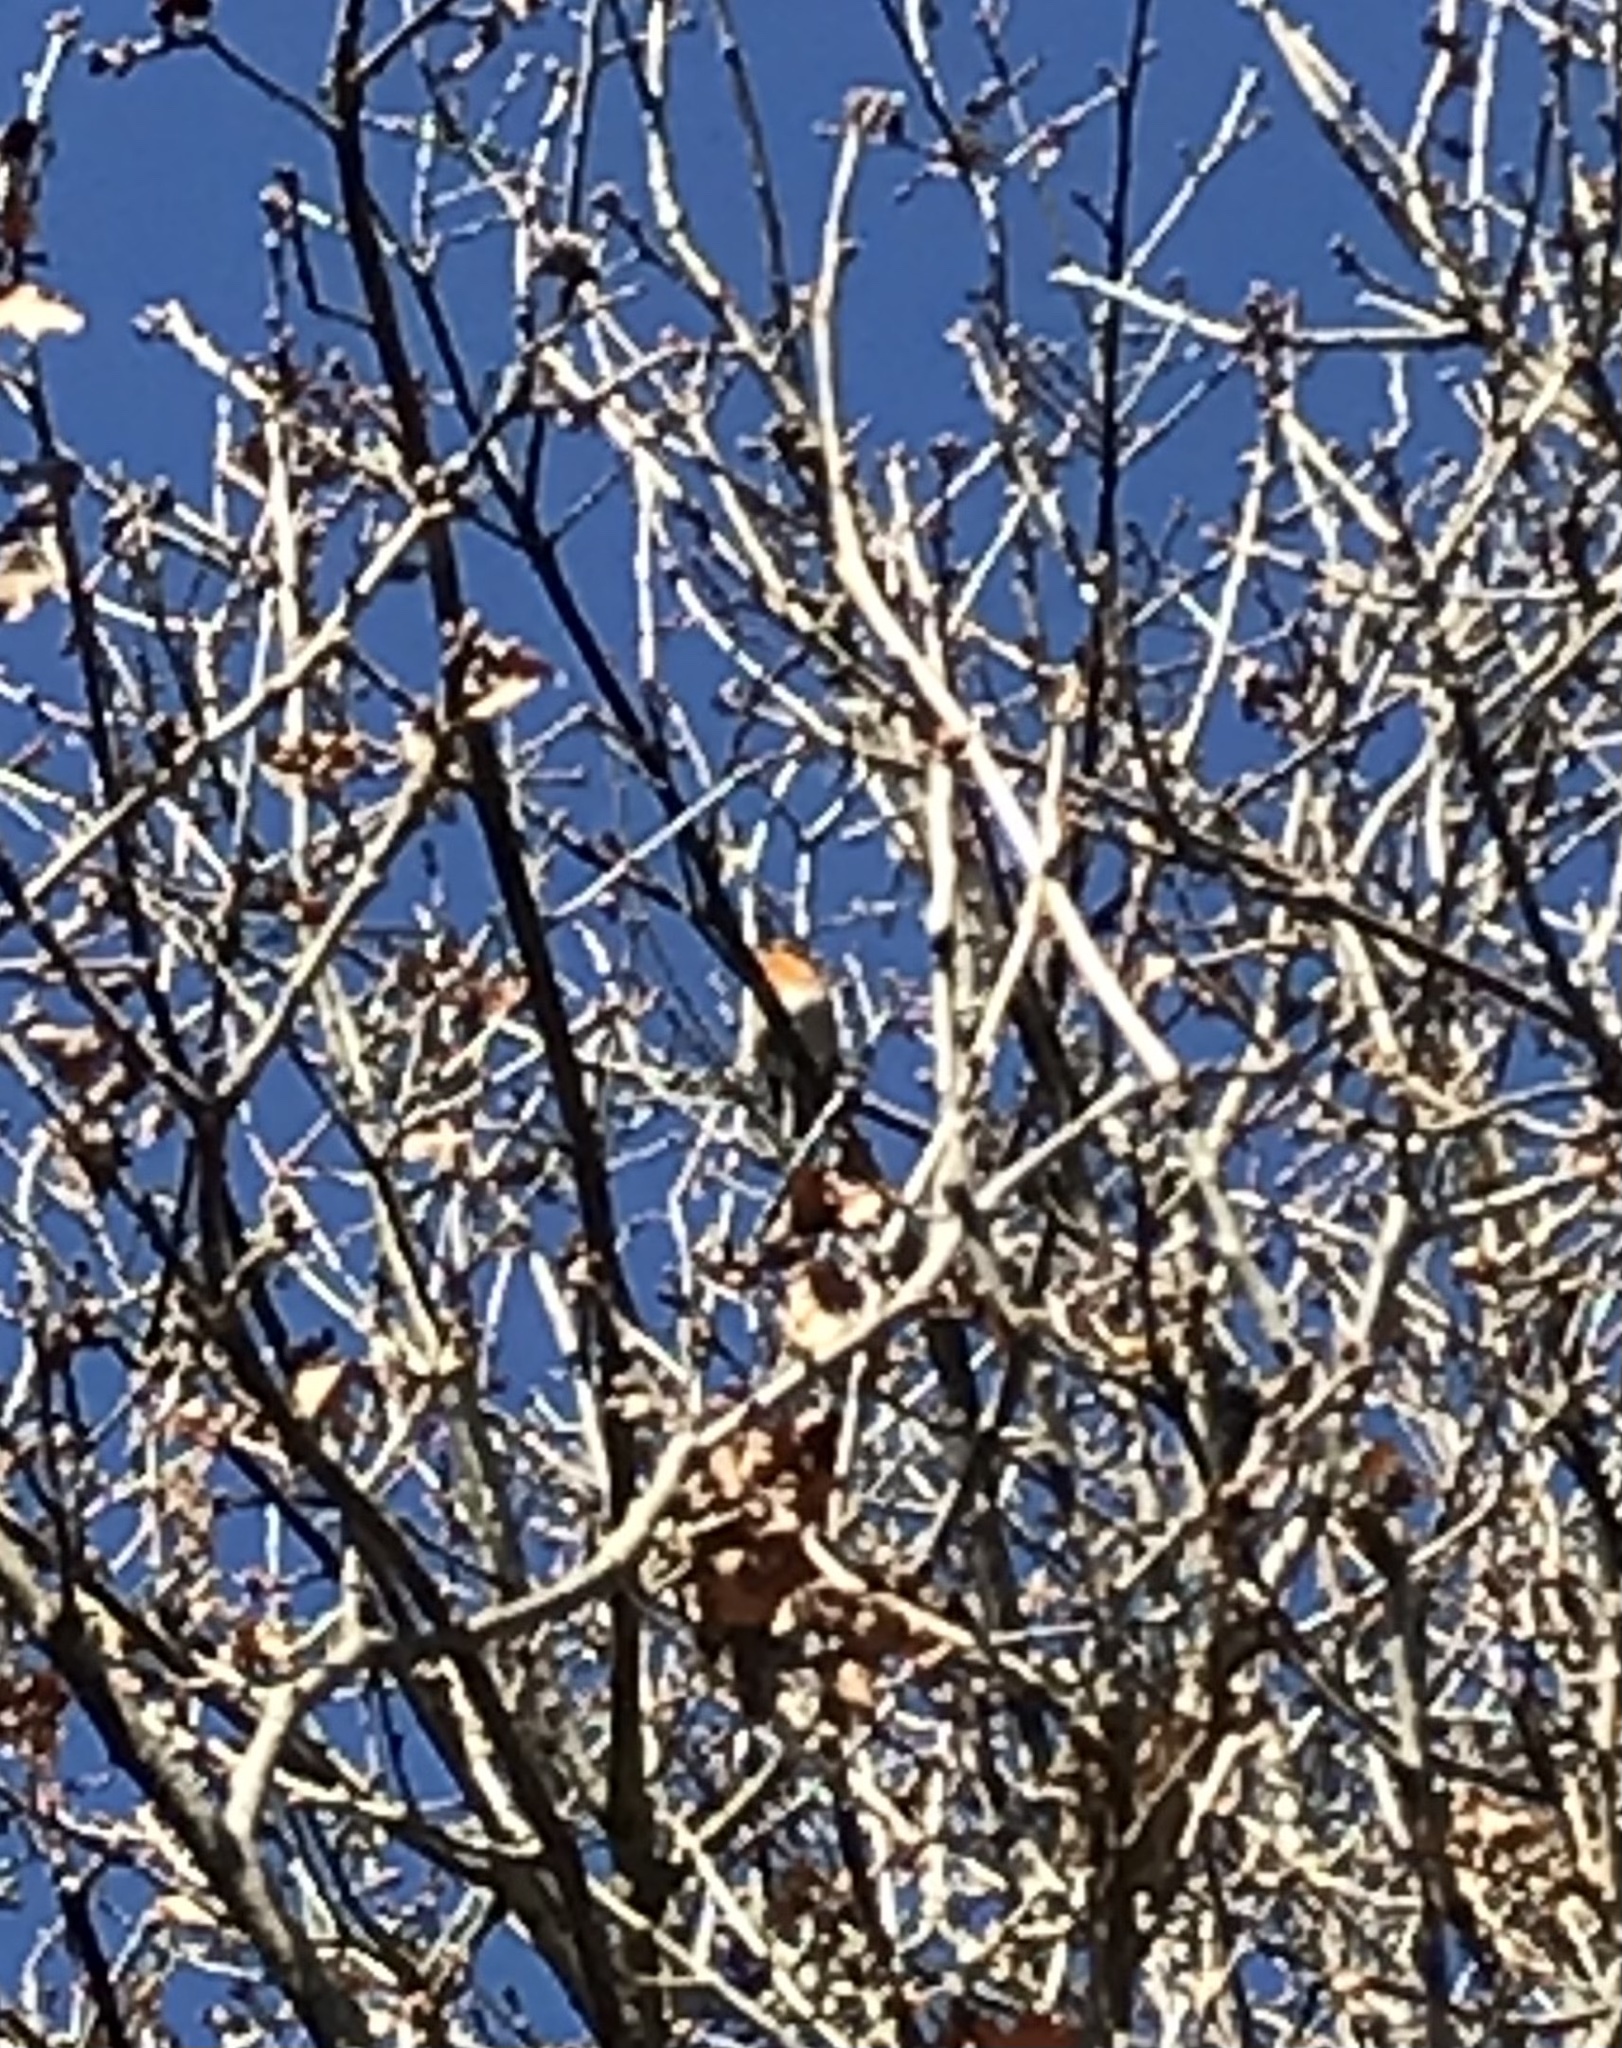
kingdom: Animalia
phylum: Chordata
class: Aves
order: Passeriformes
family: Muscicapidae
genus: Erithacus
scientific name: Erithacus rubecula
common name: European robin
